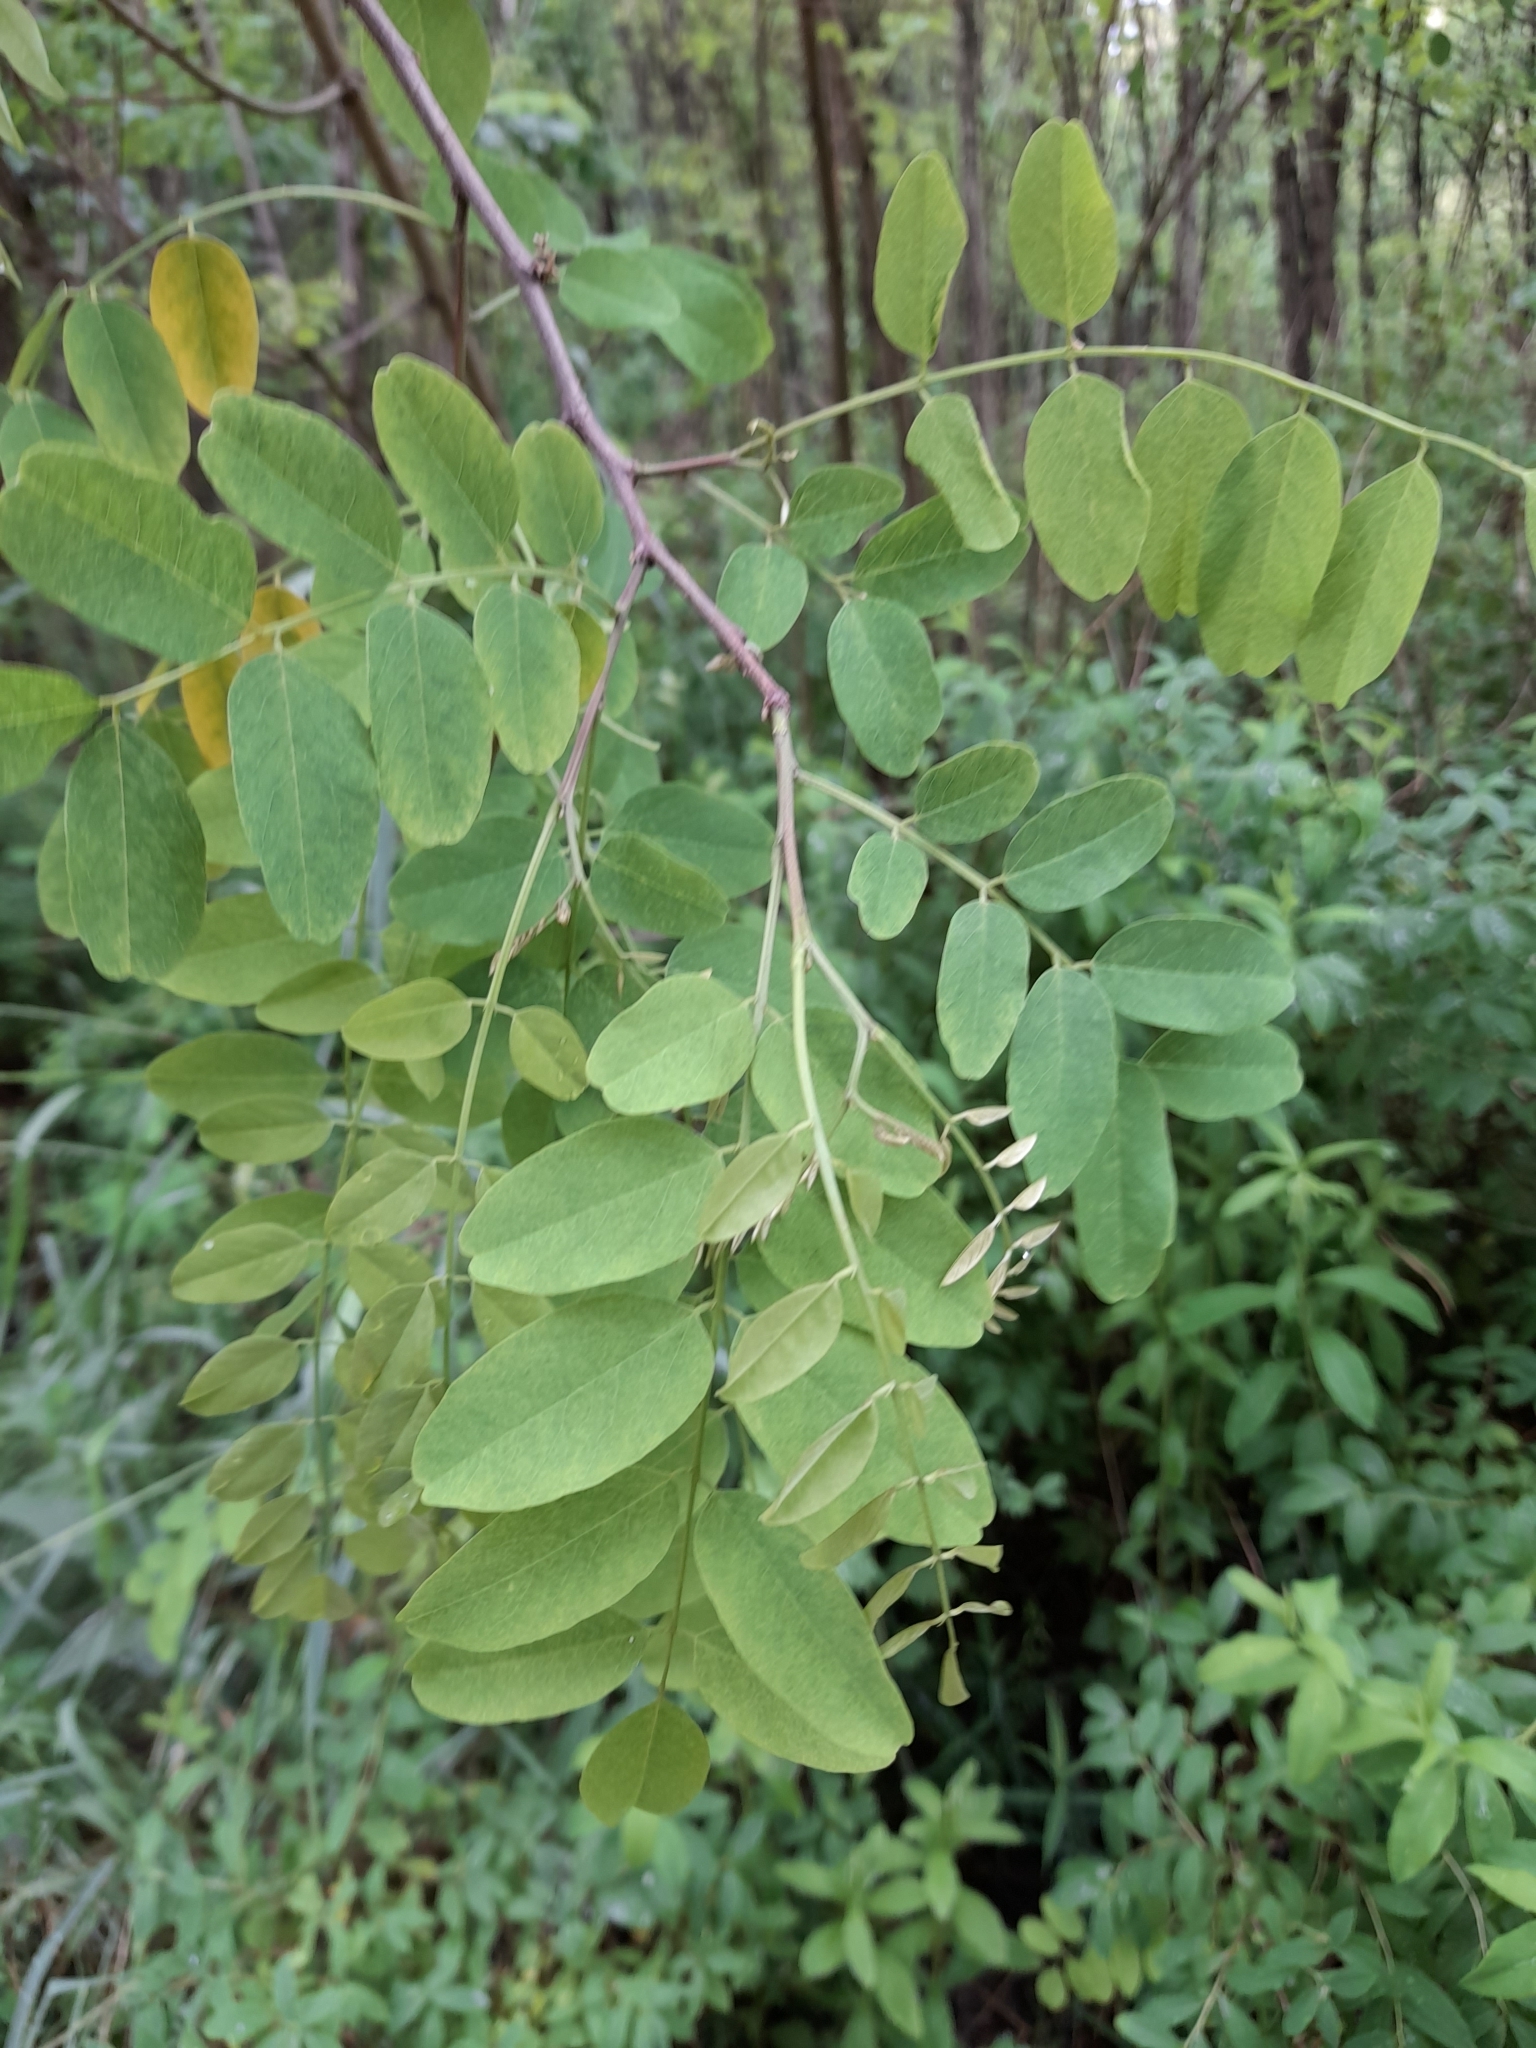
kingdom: Plantae
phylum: Tracheophyta
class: Magnoliopsida
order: Fabales
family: Fabaceae
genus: Robinia
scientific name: Robinia pseudoacacia
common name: Black locust
